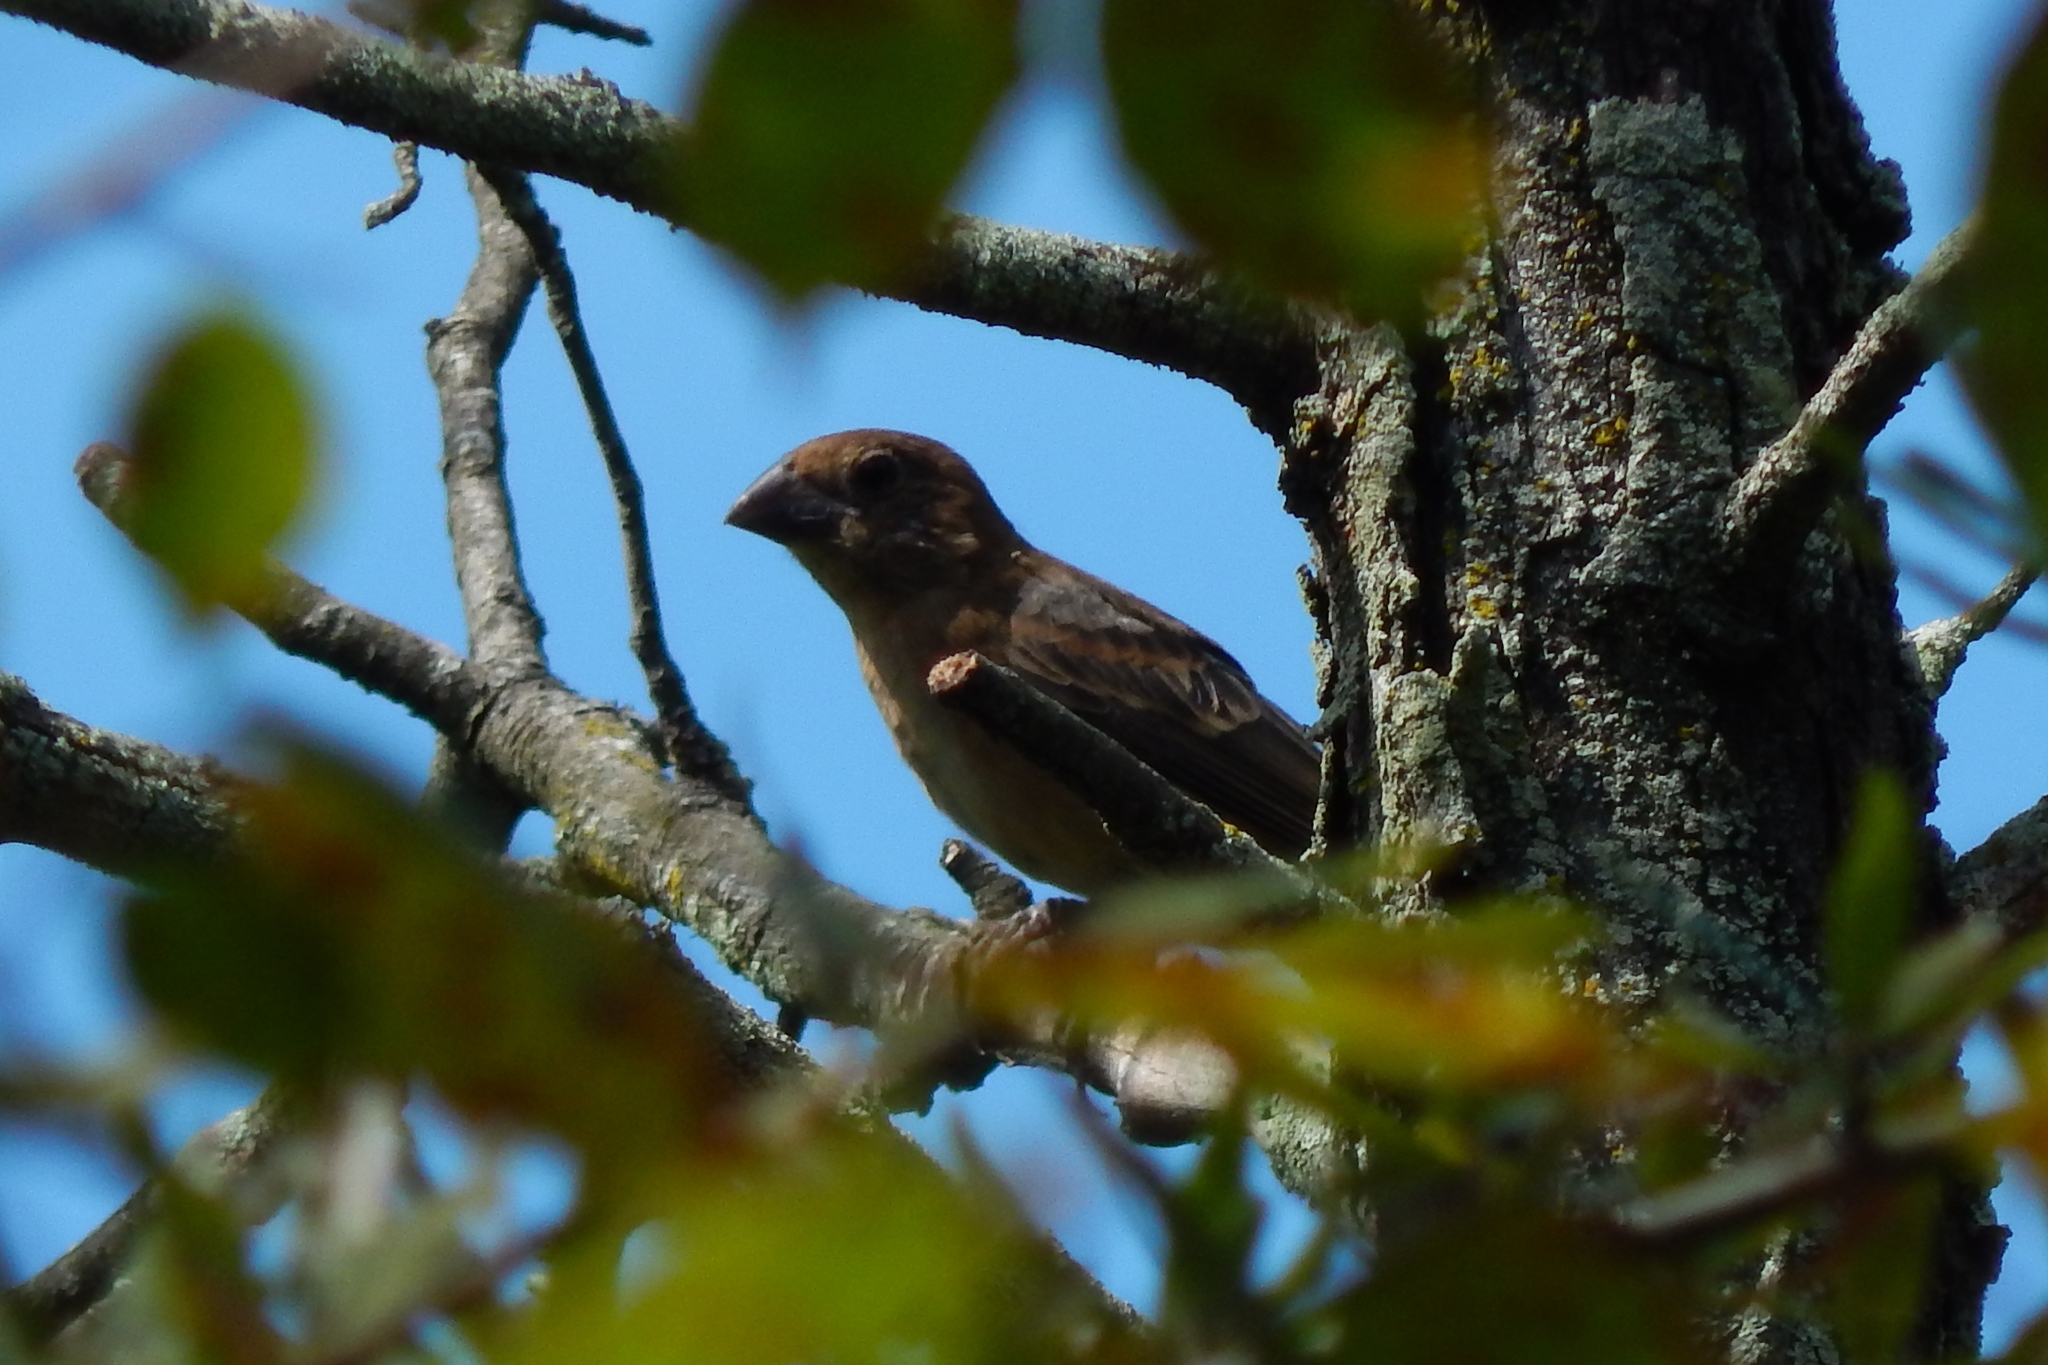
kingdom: Animalia
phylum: Chordata
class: Aves
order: Passeriformes
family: Cardinalidae
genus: Passerina
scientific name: Passerina caerulea
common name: Blue grosbeak
